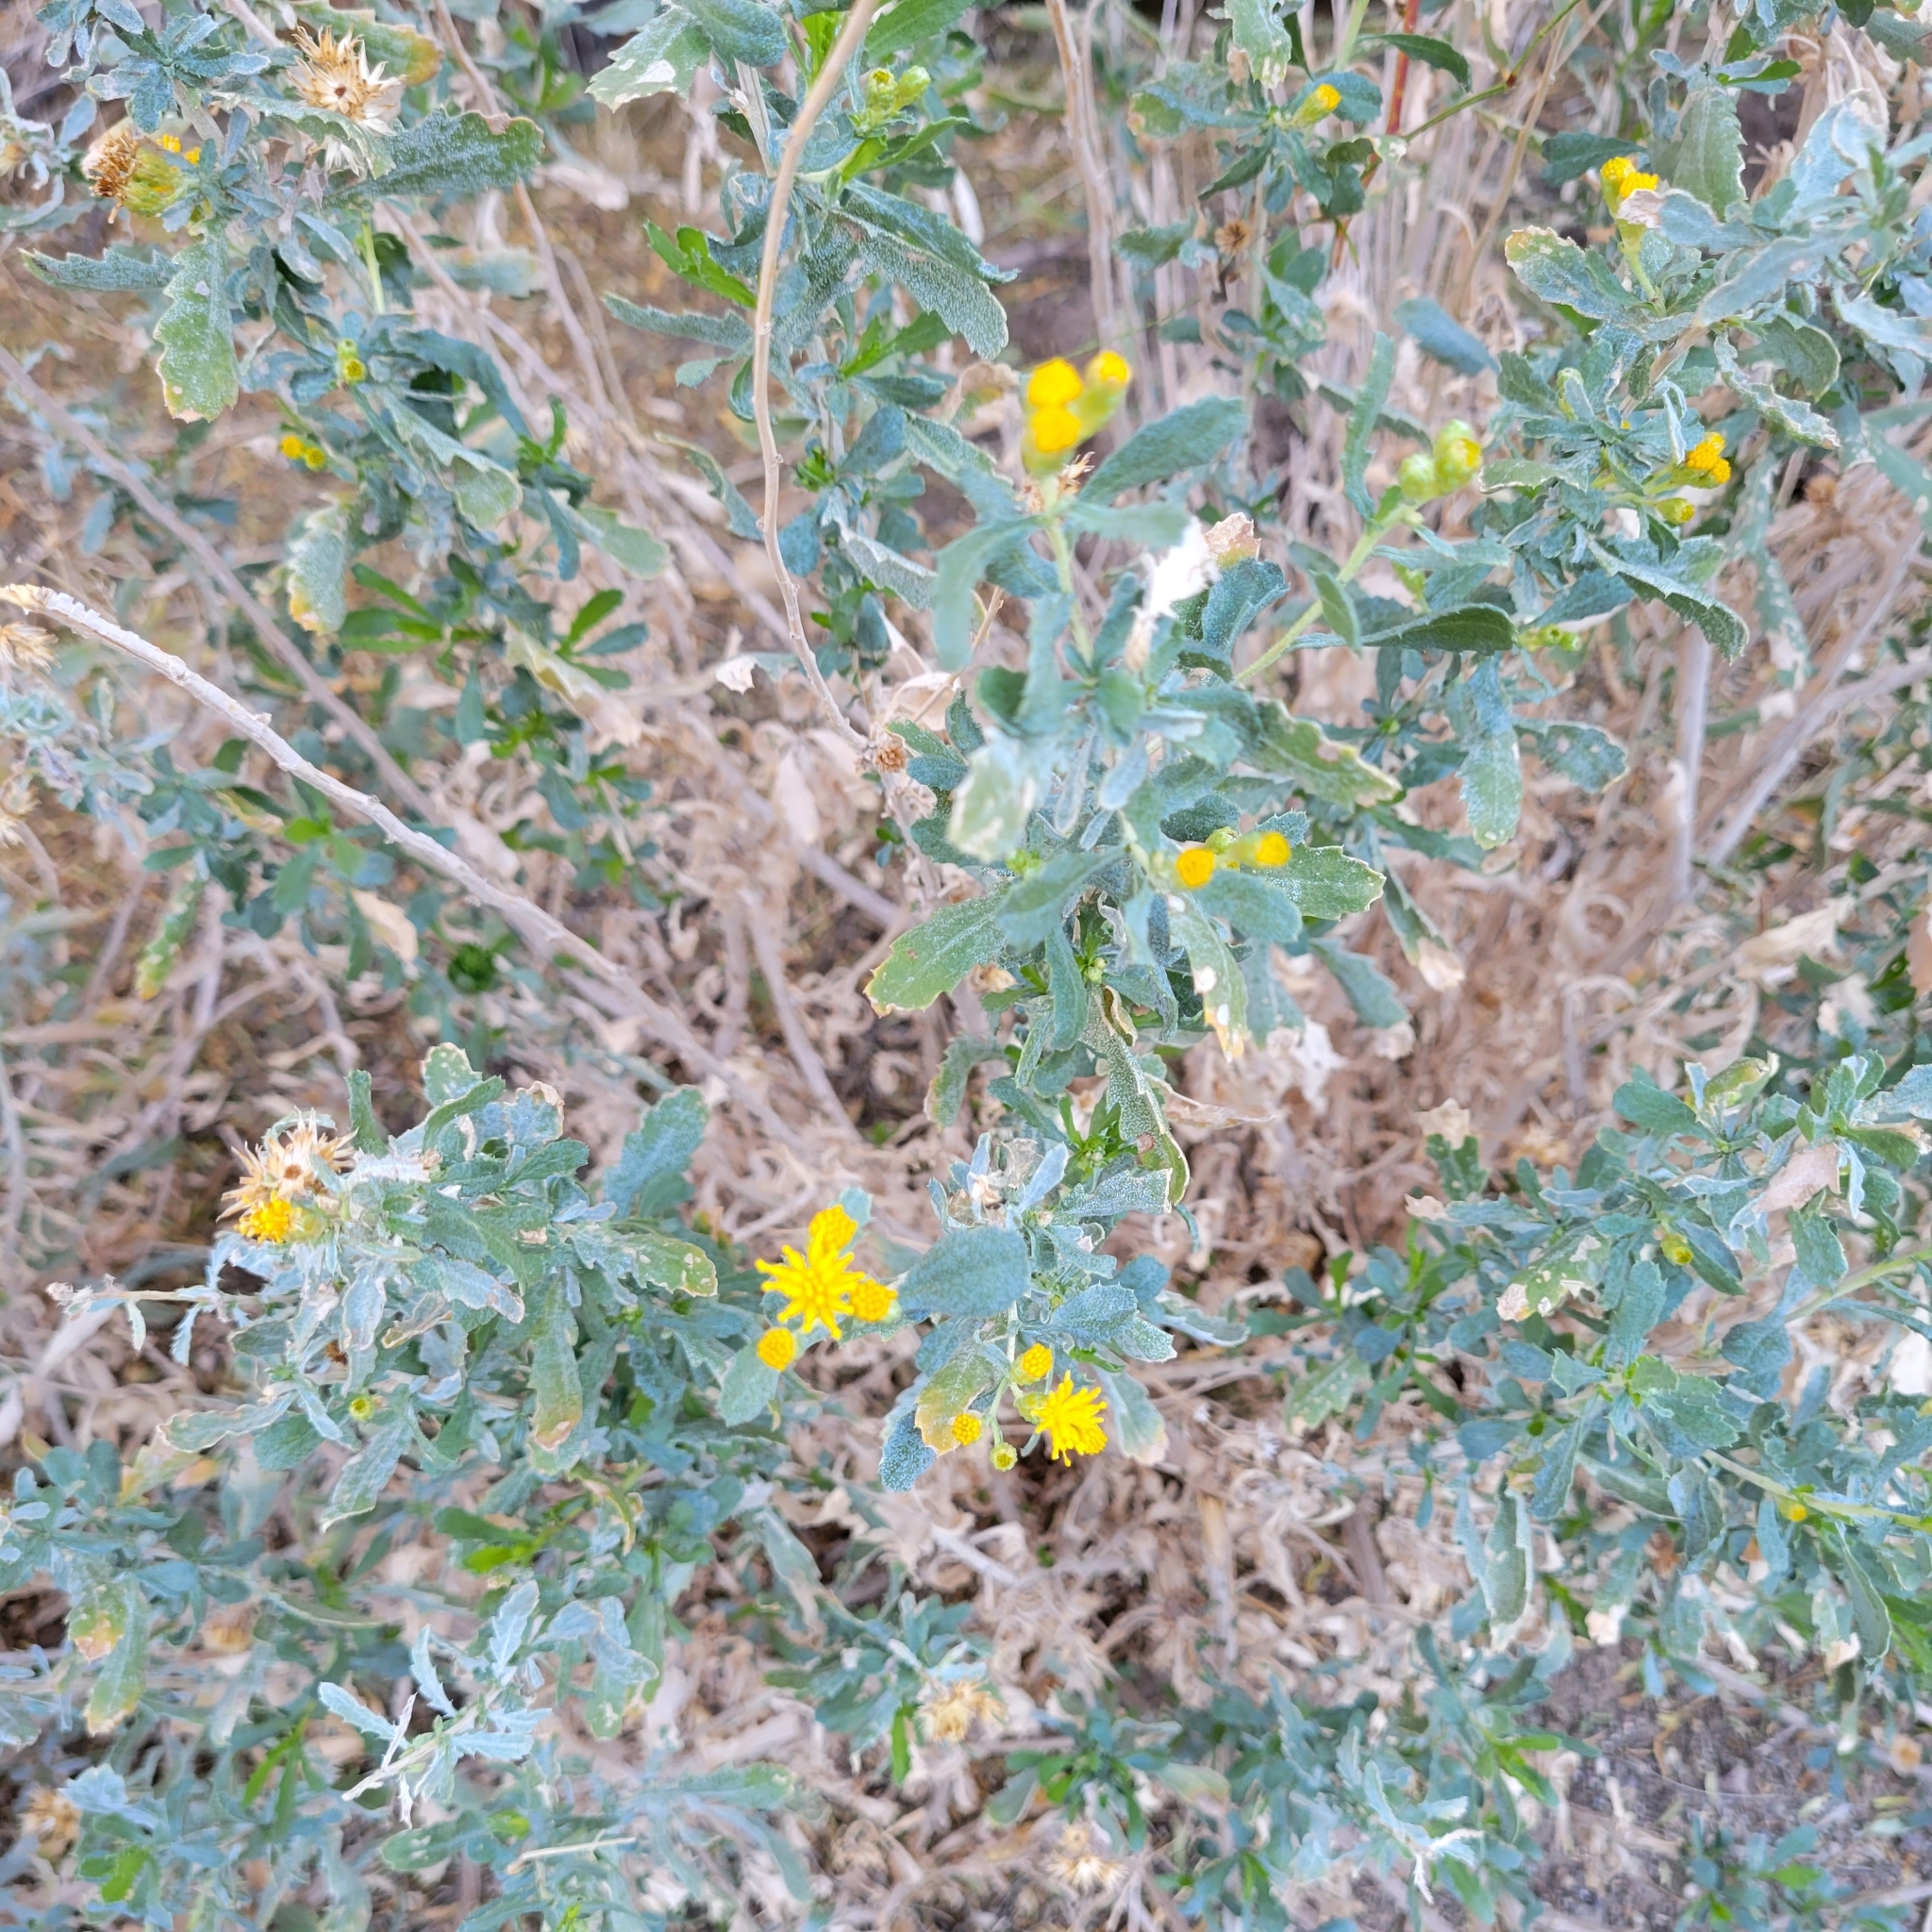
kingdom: Plantae
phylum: Tracheophyta
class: Magnoliopsida
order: Asterales
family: Asteraceae
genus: Isocoma
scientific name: Isocoma acradenia
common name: Alkali jimmyweed
